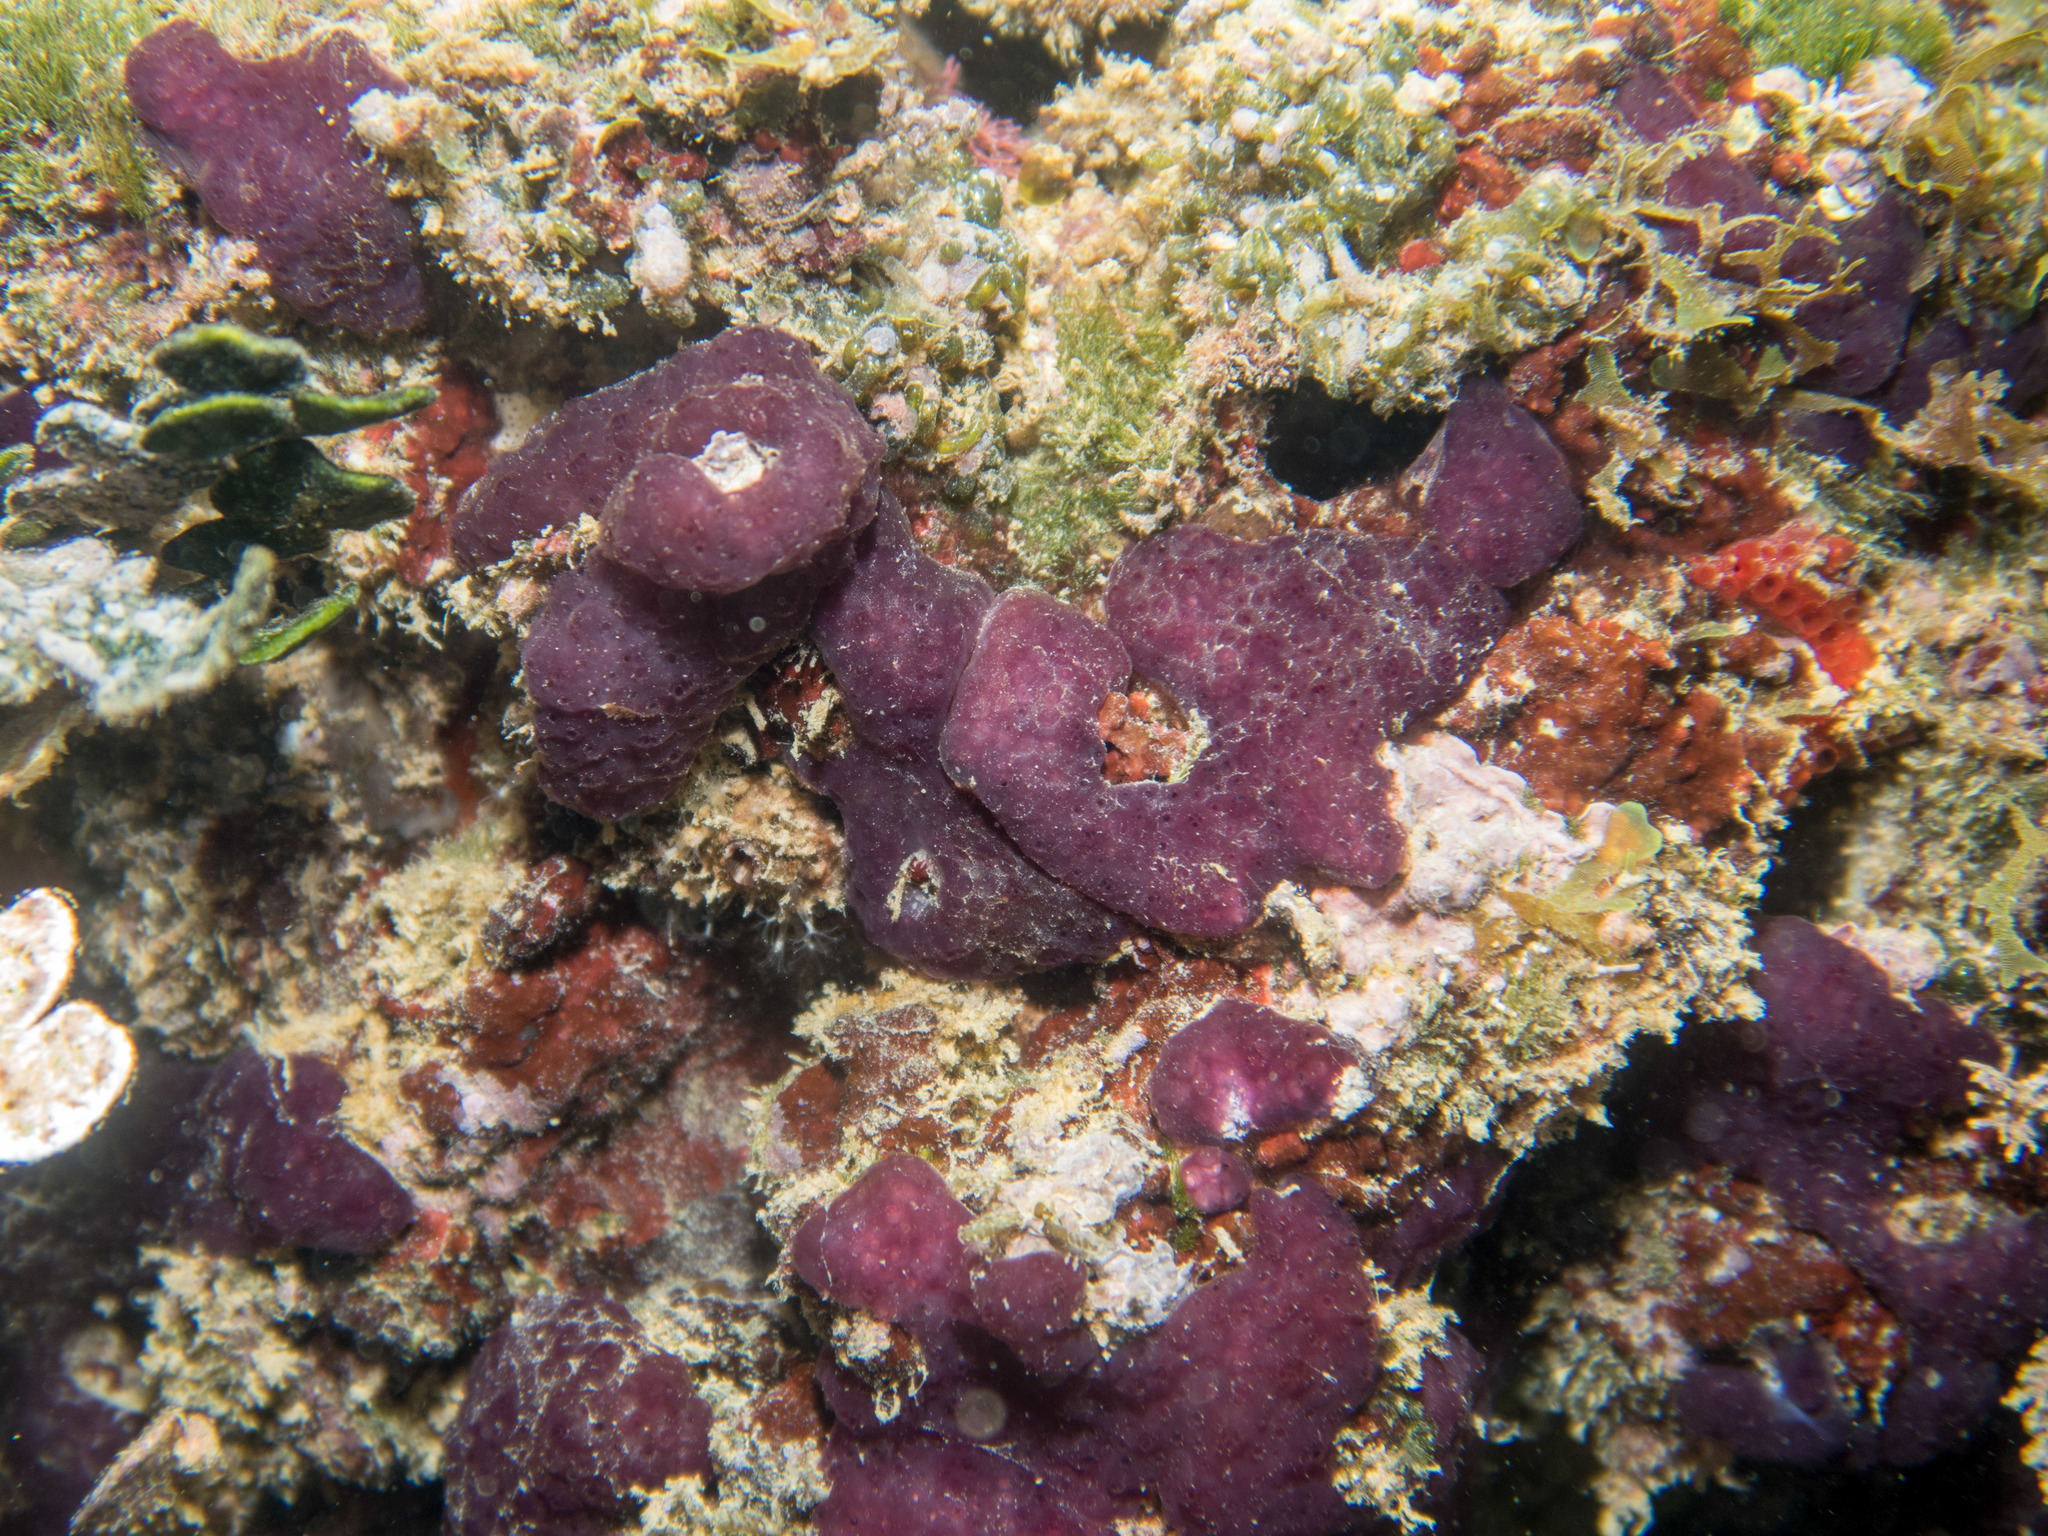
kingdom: Animalia
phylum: Chordata
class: Ascidiacea
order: Aplousobranchia
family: Polycitoridae
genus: Cystodytes
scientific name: Cystodytes dellechiajei
